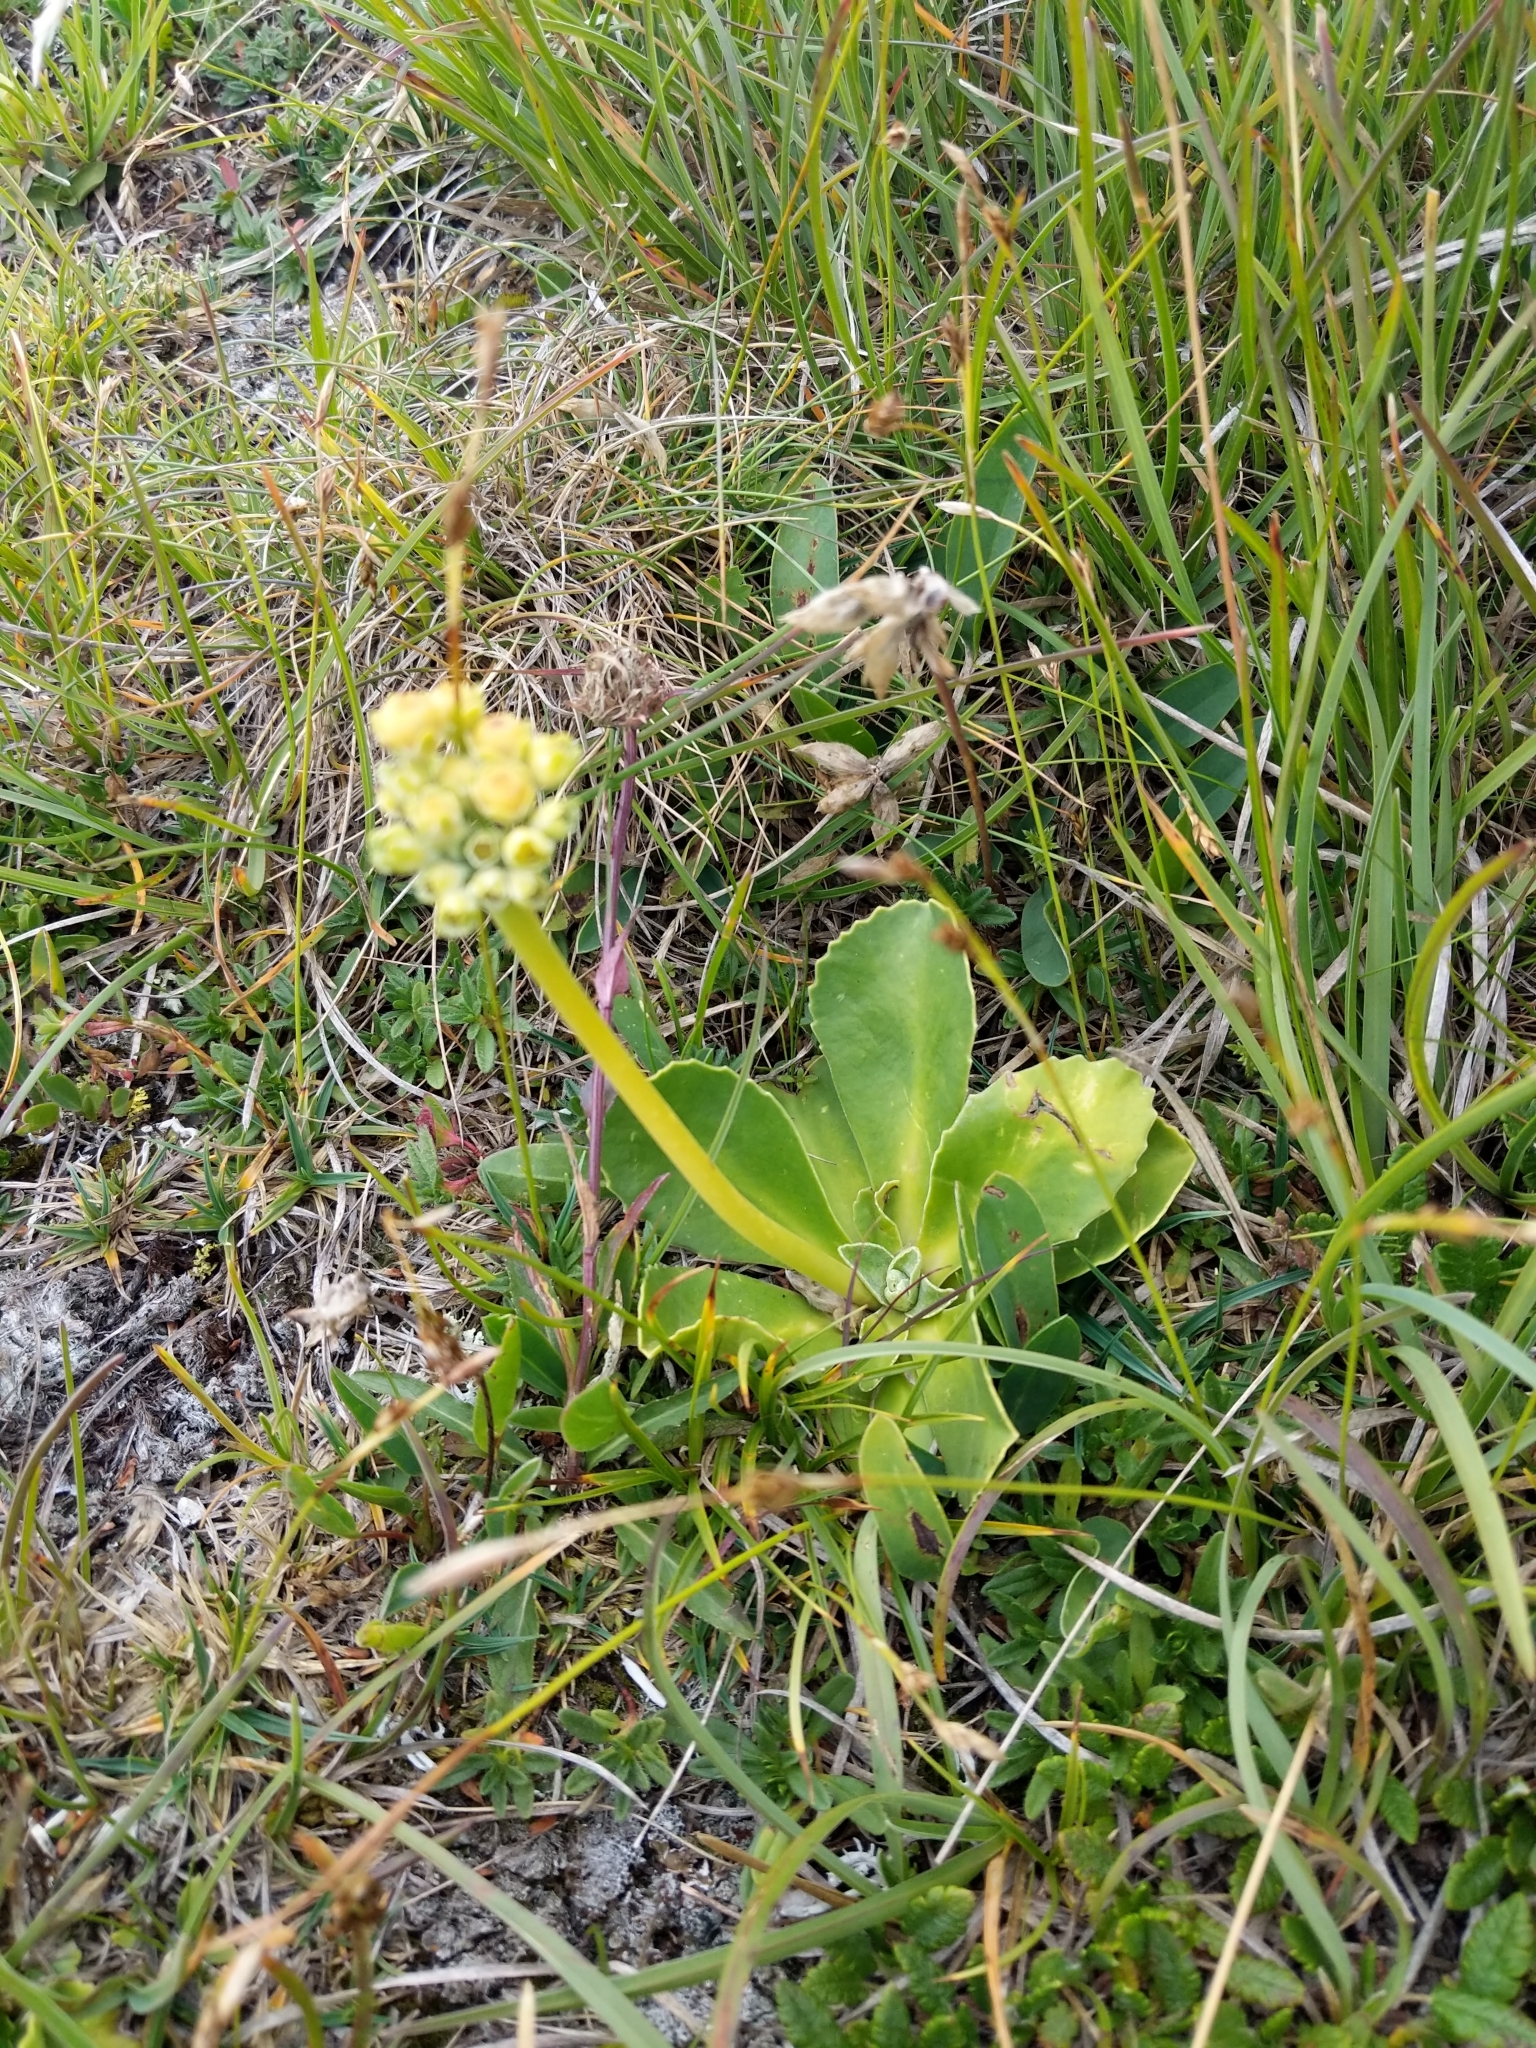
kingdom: Plantae
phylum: Tracheophyta
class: Magnoliopsida
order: Ericales
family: Primulaceae
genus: Primula
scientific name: Primula auricula
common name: Auricula
